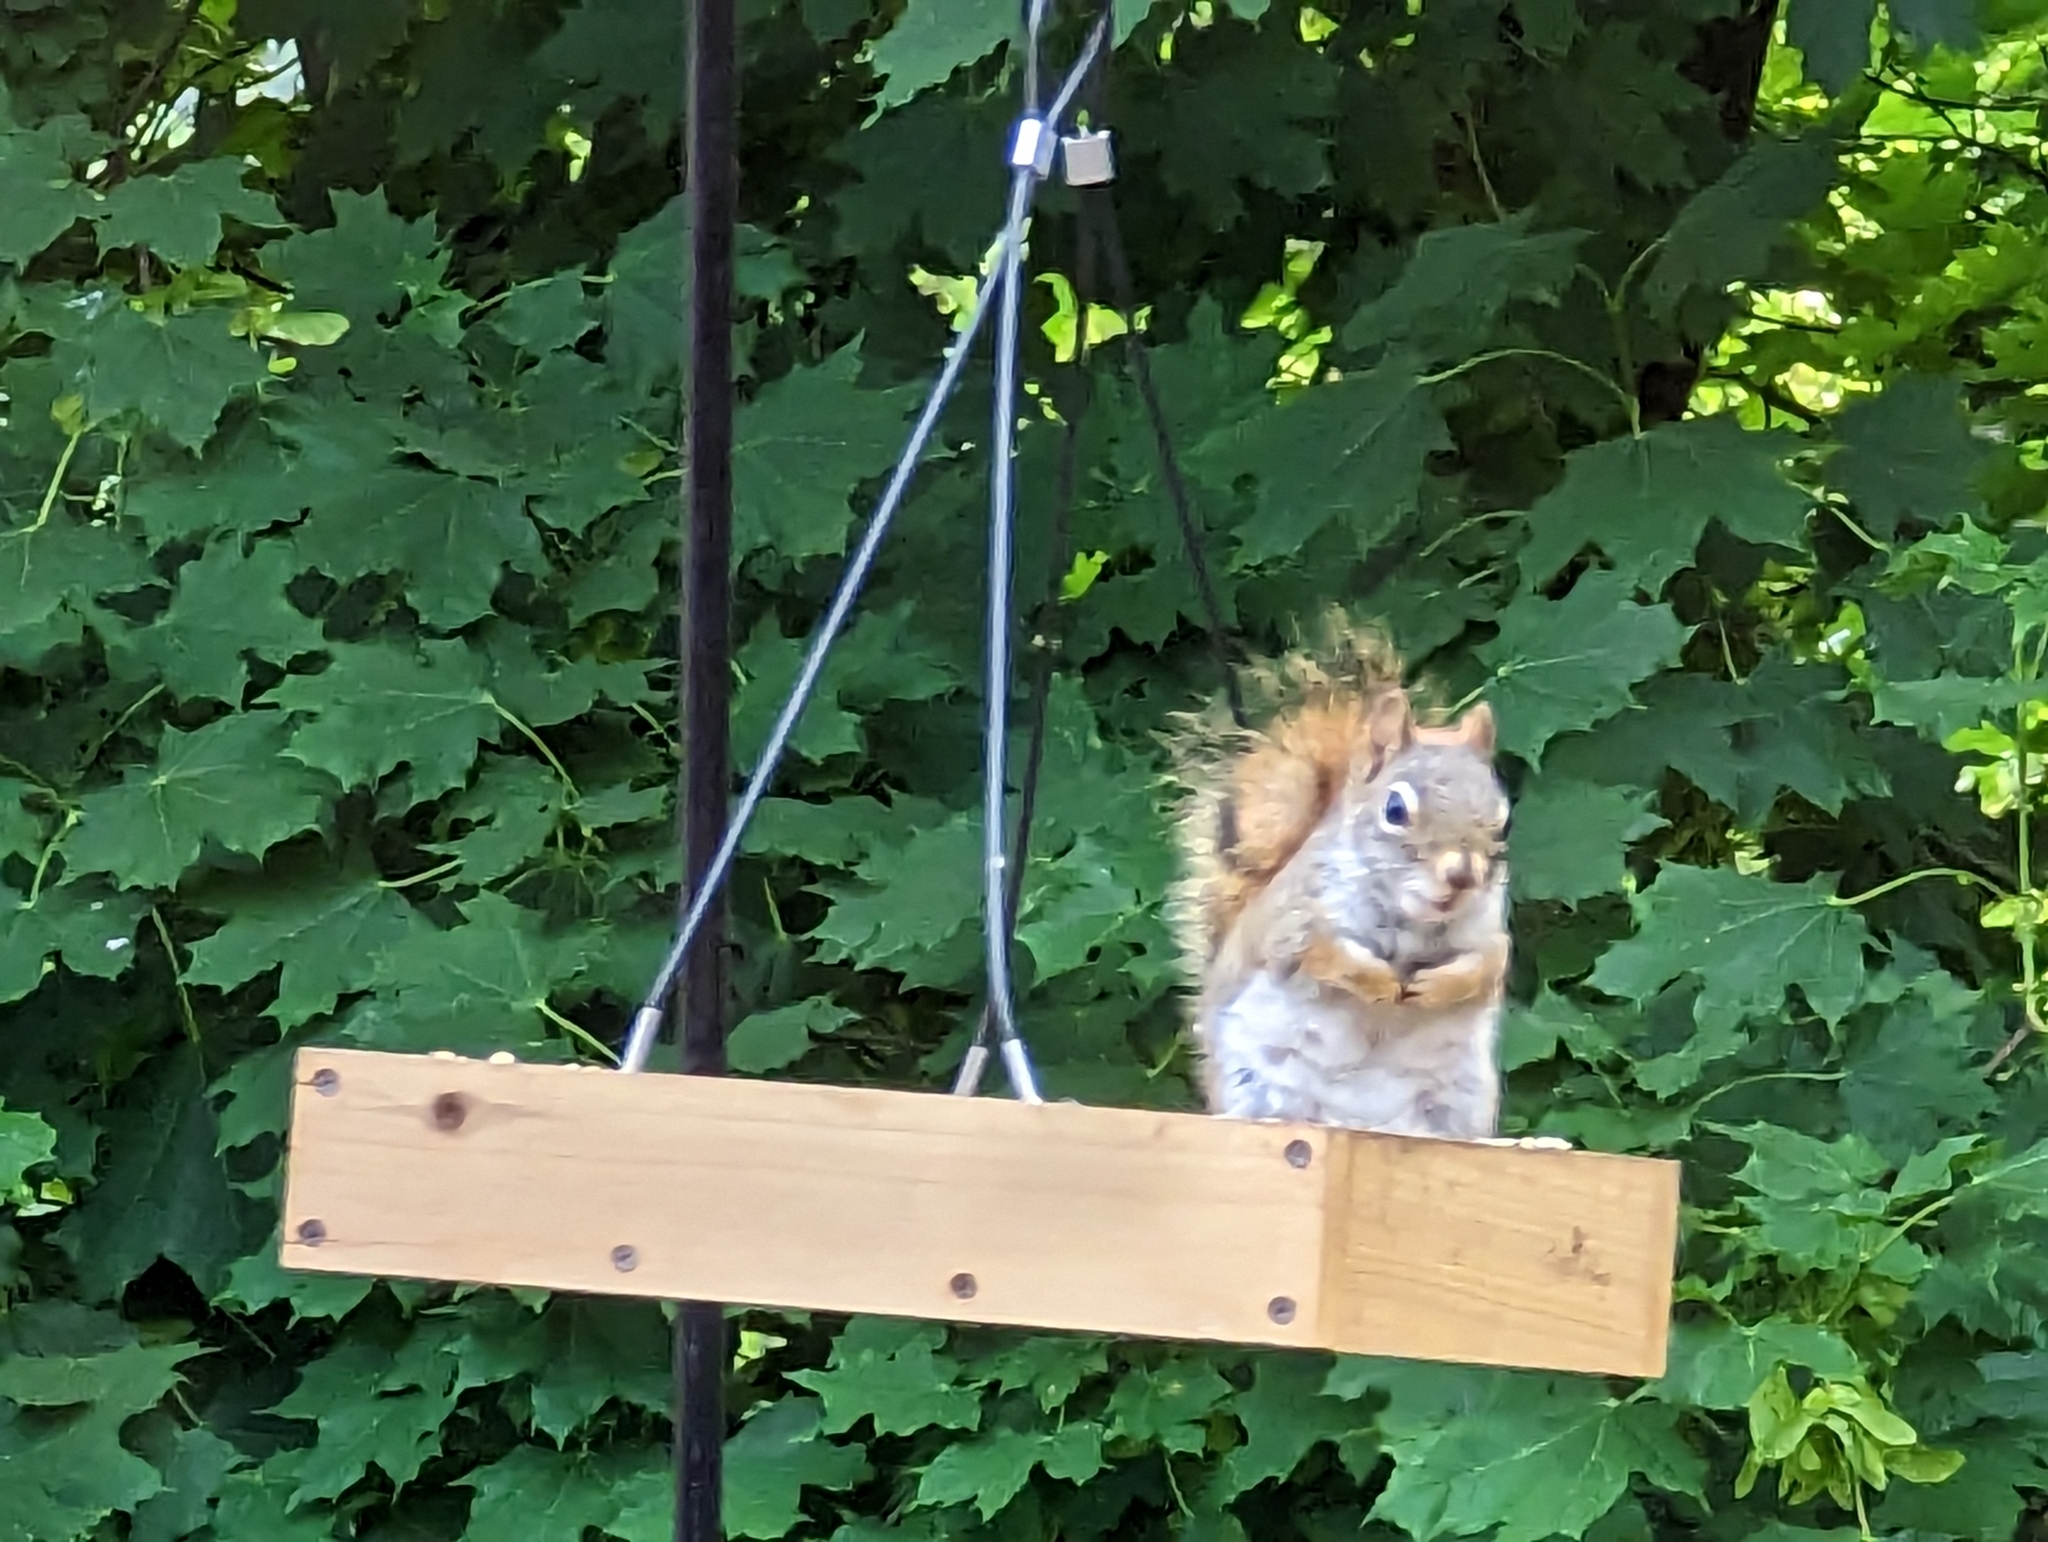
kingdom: Animalia
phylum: Chordata
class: Mammalia
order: Rodentia
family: Sciuridae
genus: Tamiasciurus
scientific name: Tamiasciurus hudsonicus
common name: Red squirrel
